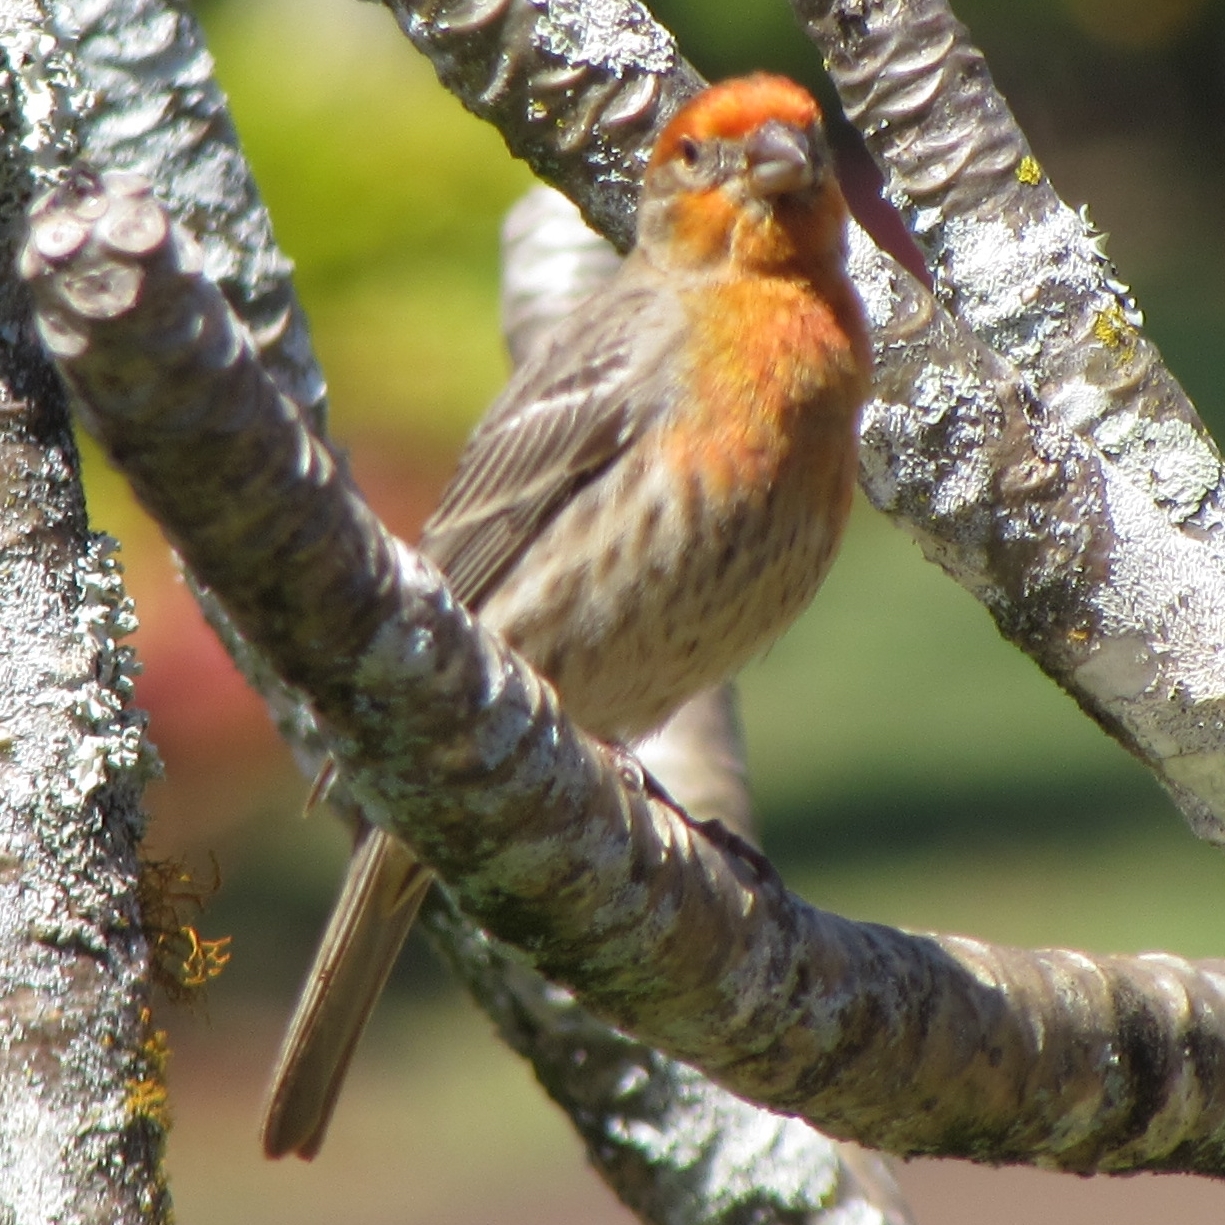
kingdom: Animalia
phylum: Chordata
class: Aves
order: Passeriformes
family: Fringillidae
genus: Haemorhous
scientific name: Haemorhous mexicanus
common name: House finch
